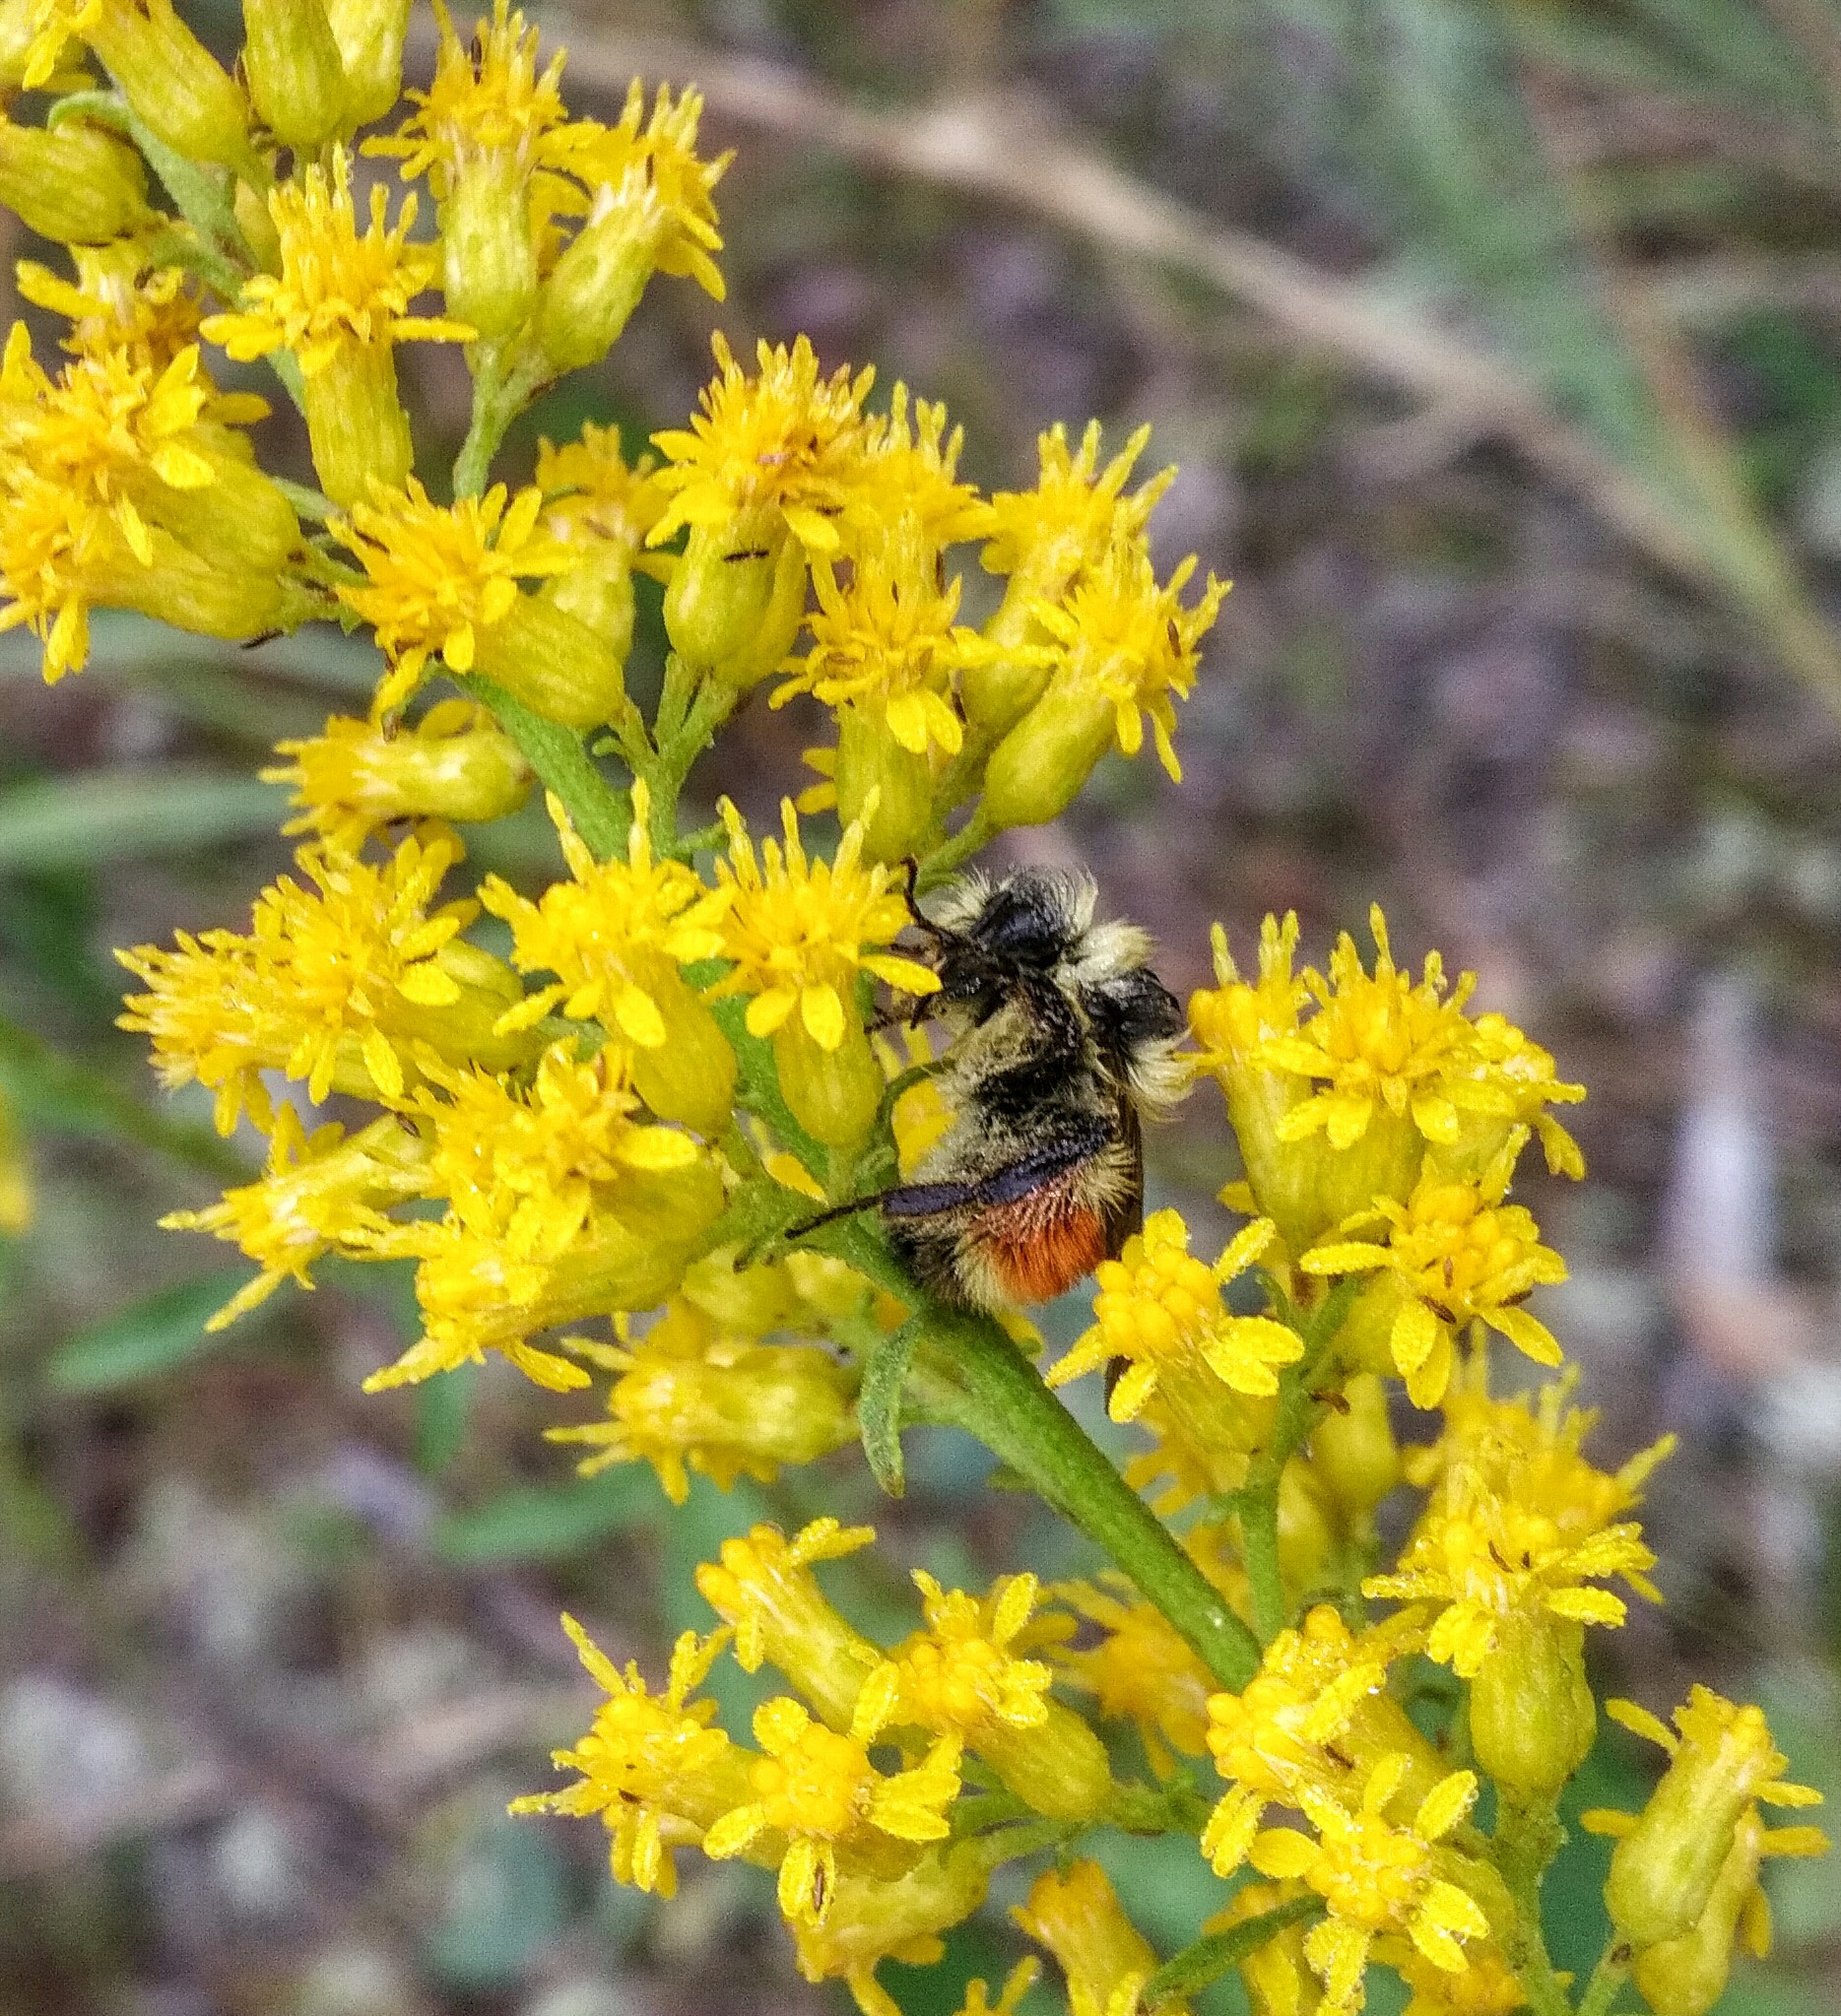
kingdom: Animalia
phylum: Arthropoda
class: Insecta
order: Hymenoptera
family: Apidae
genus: Bombus
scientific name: Bombus ternarius
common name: Tri-colored bumble bee
